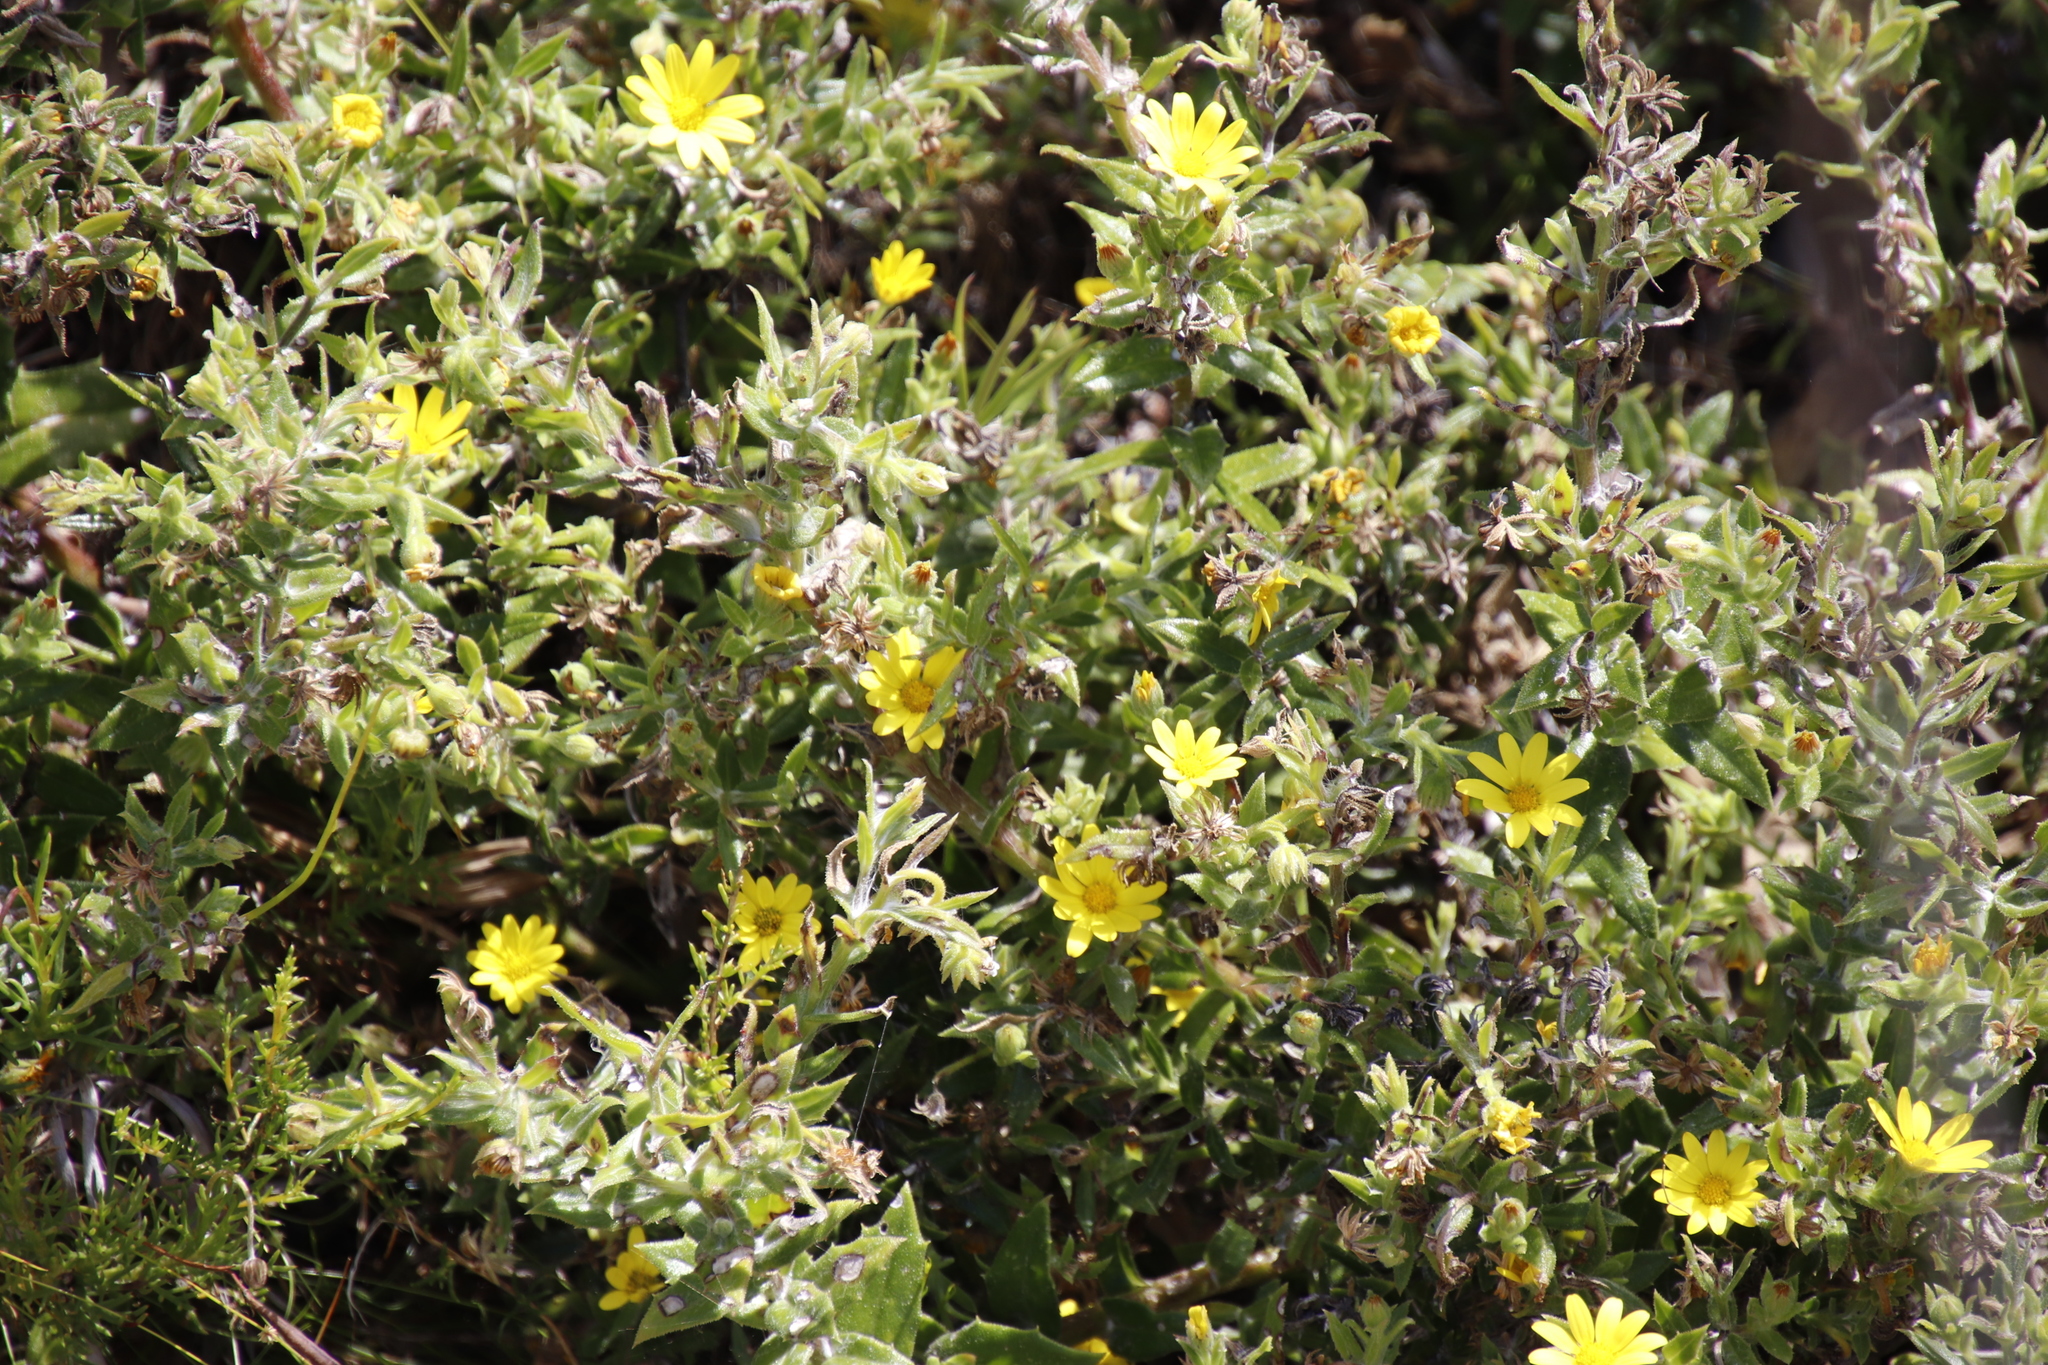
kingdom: Plantae
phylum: Tracheophyta
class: Magnoliopsida
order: Asterales
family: Asteraceae
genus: Osteospermum
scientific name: Osteospermum ilicifolium
